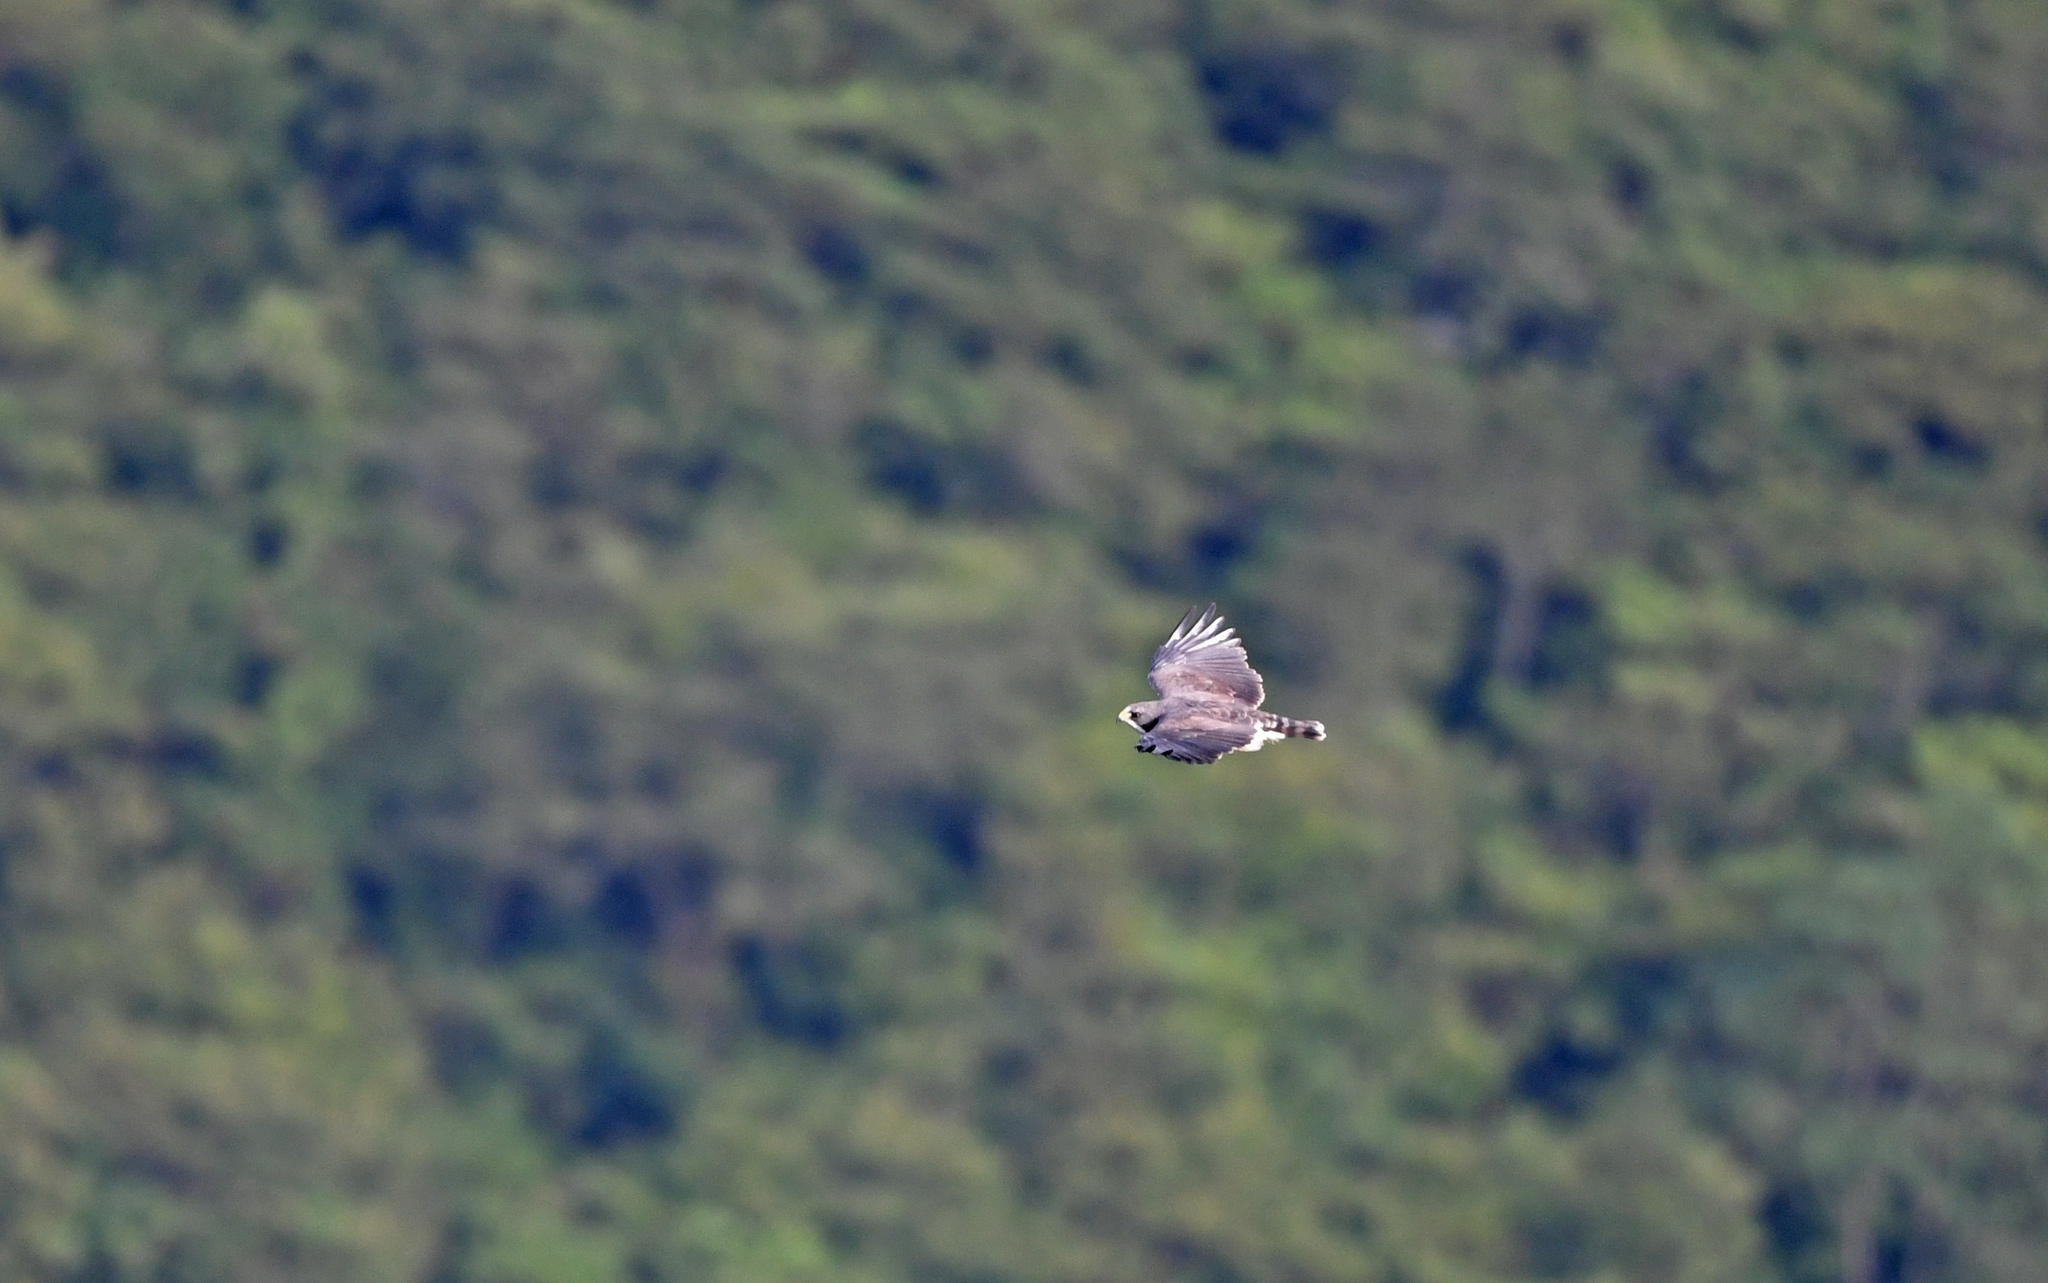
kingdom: Animalia
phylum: Chordata
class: Aves
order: Accipitriformes
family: Accipitridae
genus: Buteo
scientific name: Buteo brachyurus
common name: Short-tailed hawk
